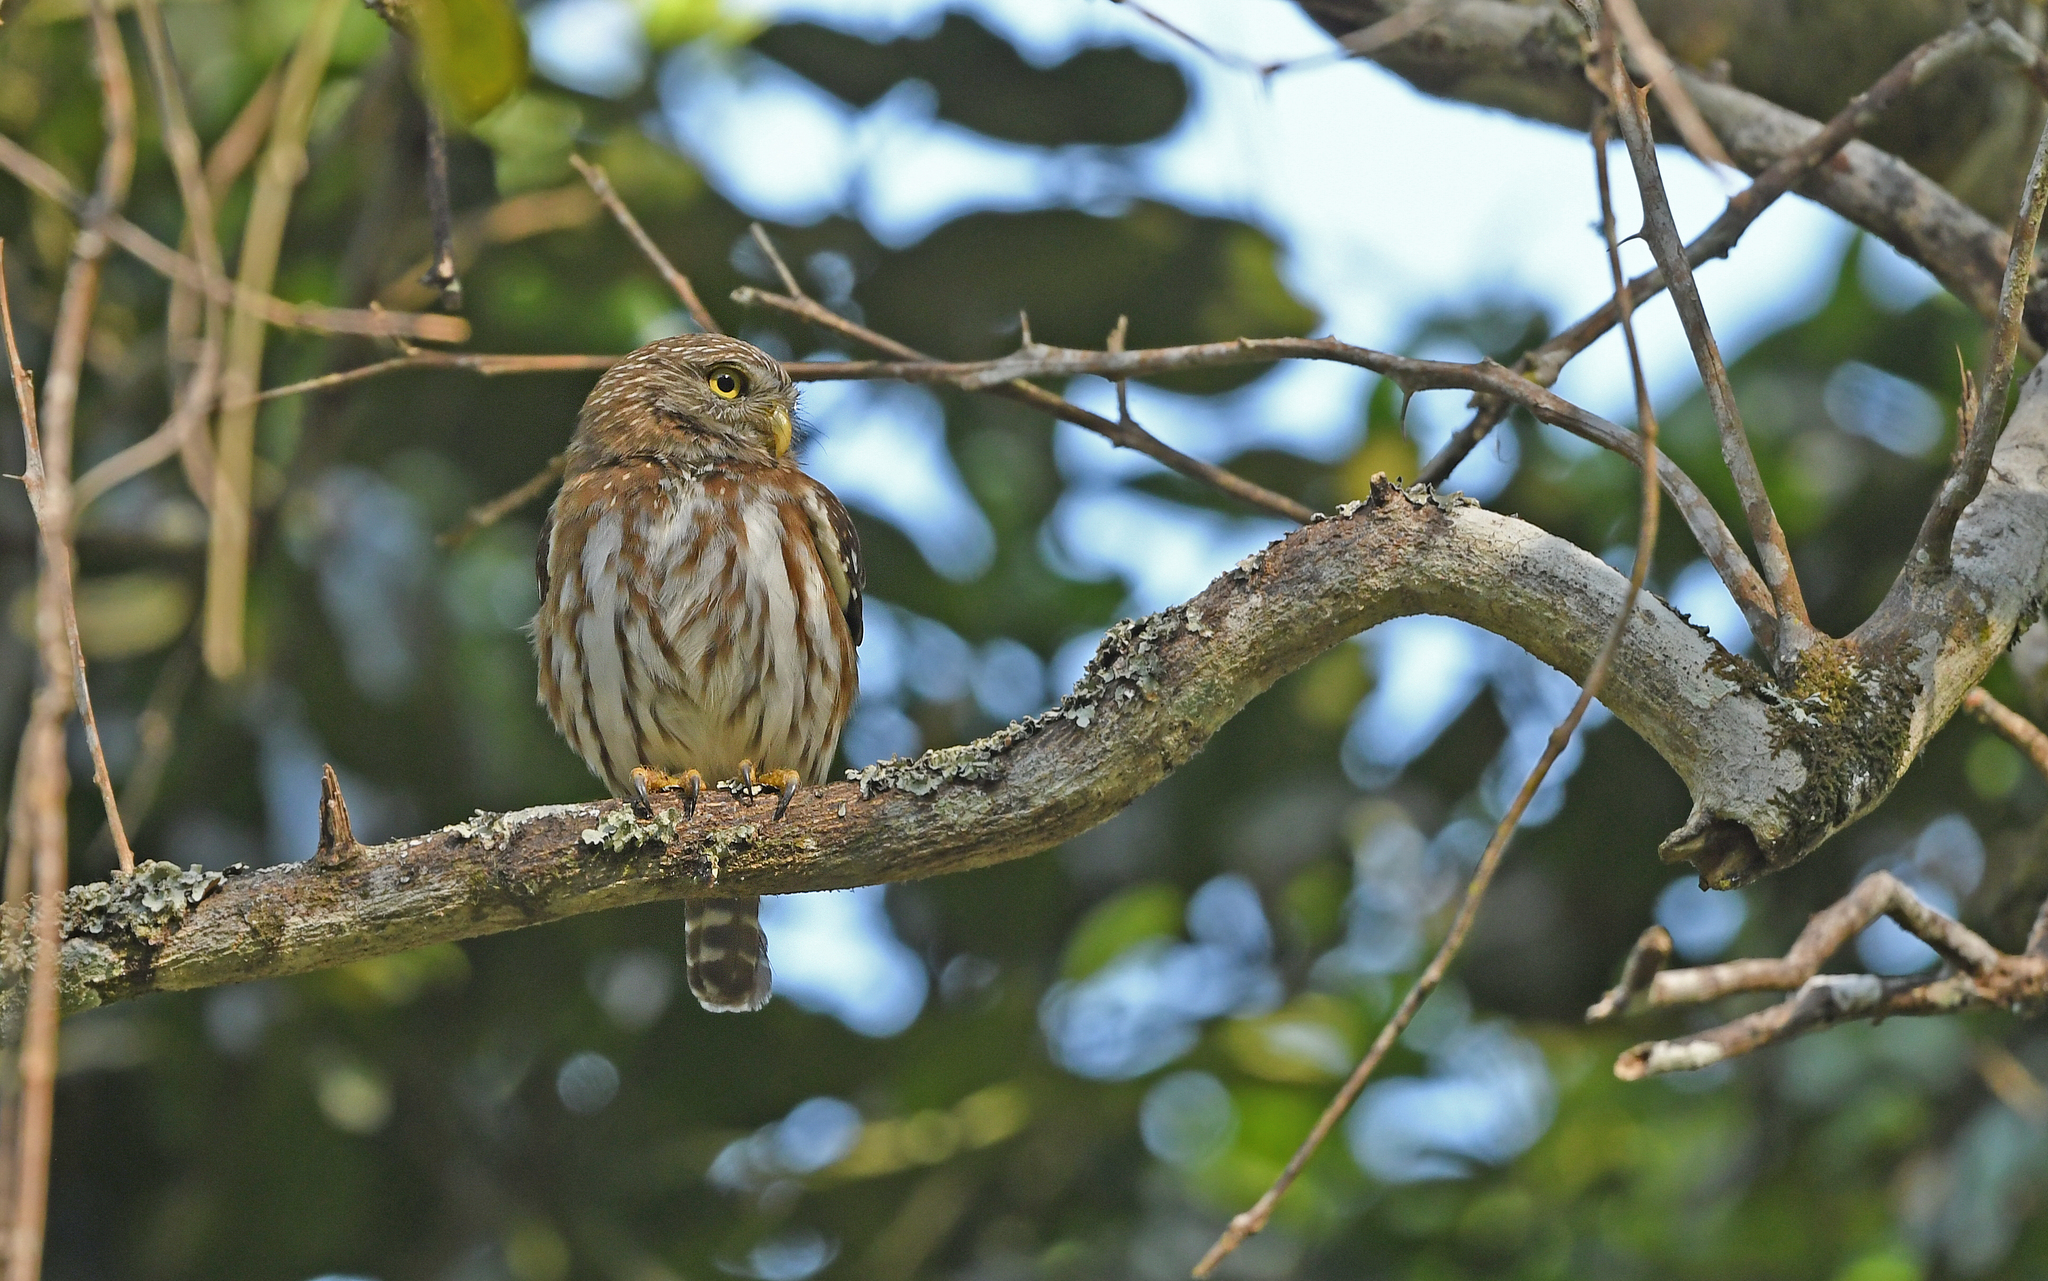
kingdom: Animalia
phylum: Chordata
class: Aves
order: Strigiformes
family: Strigidae
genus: Glaucidium
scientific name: Glaucidium brasilianum
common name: Ferruginous pygmy-owl
